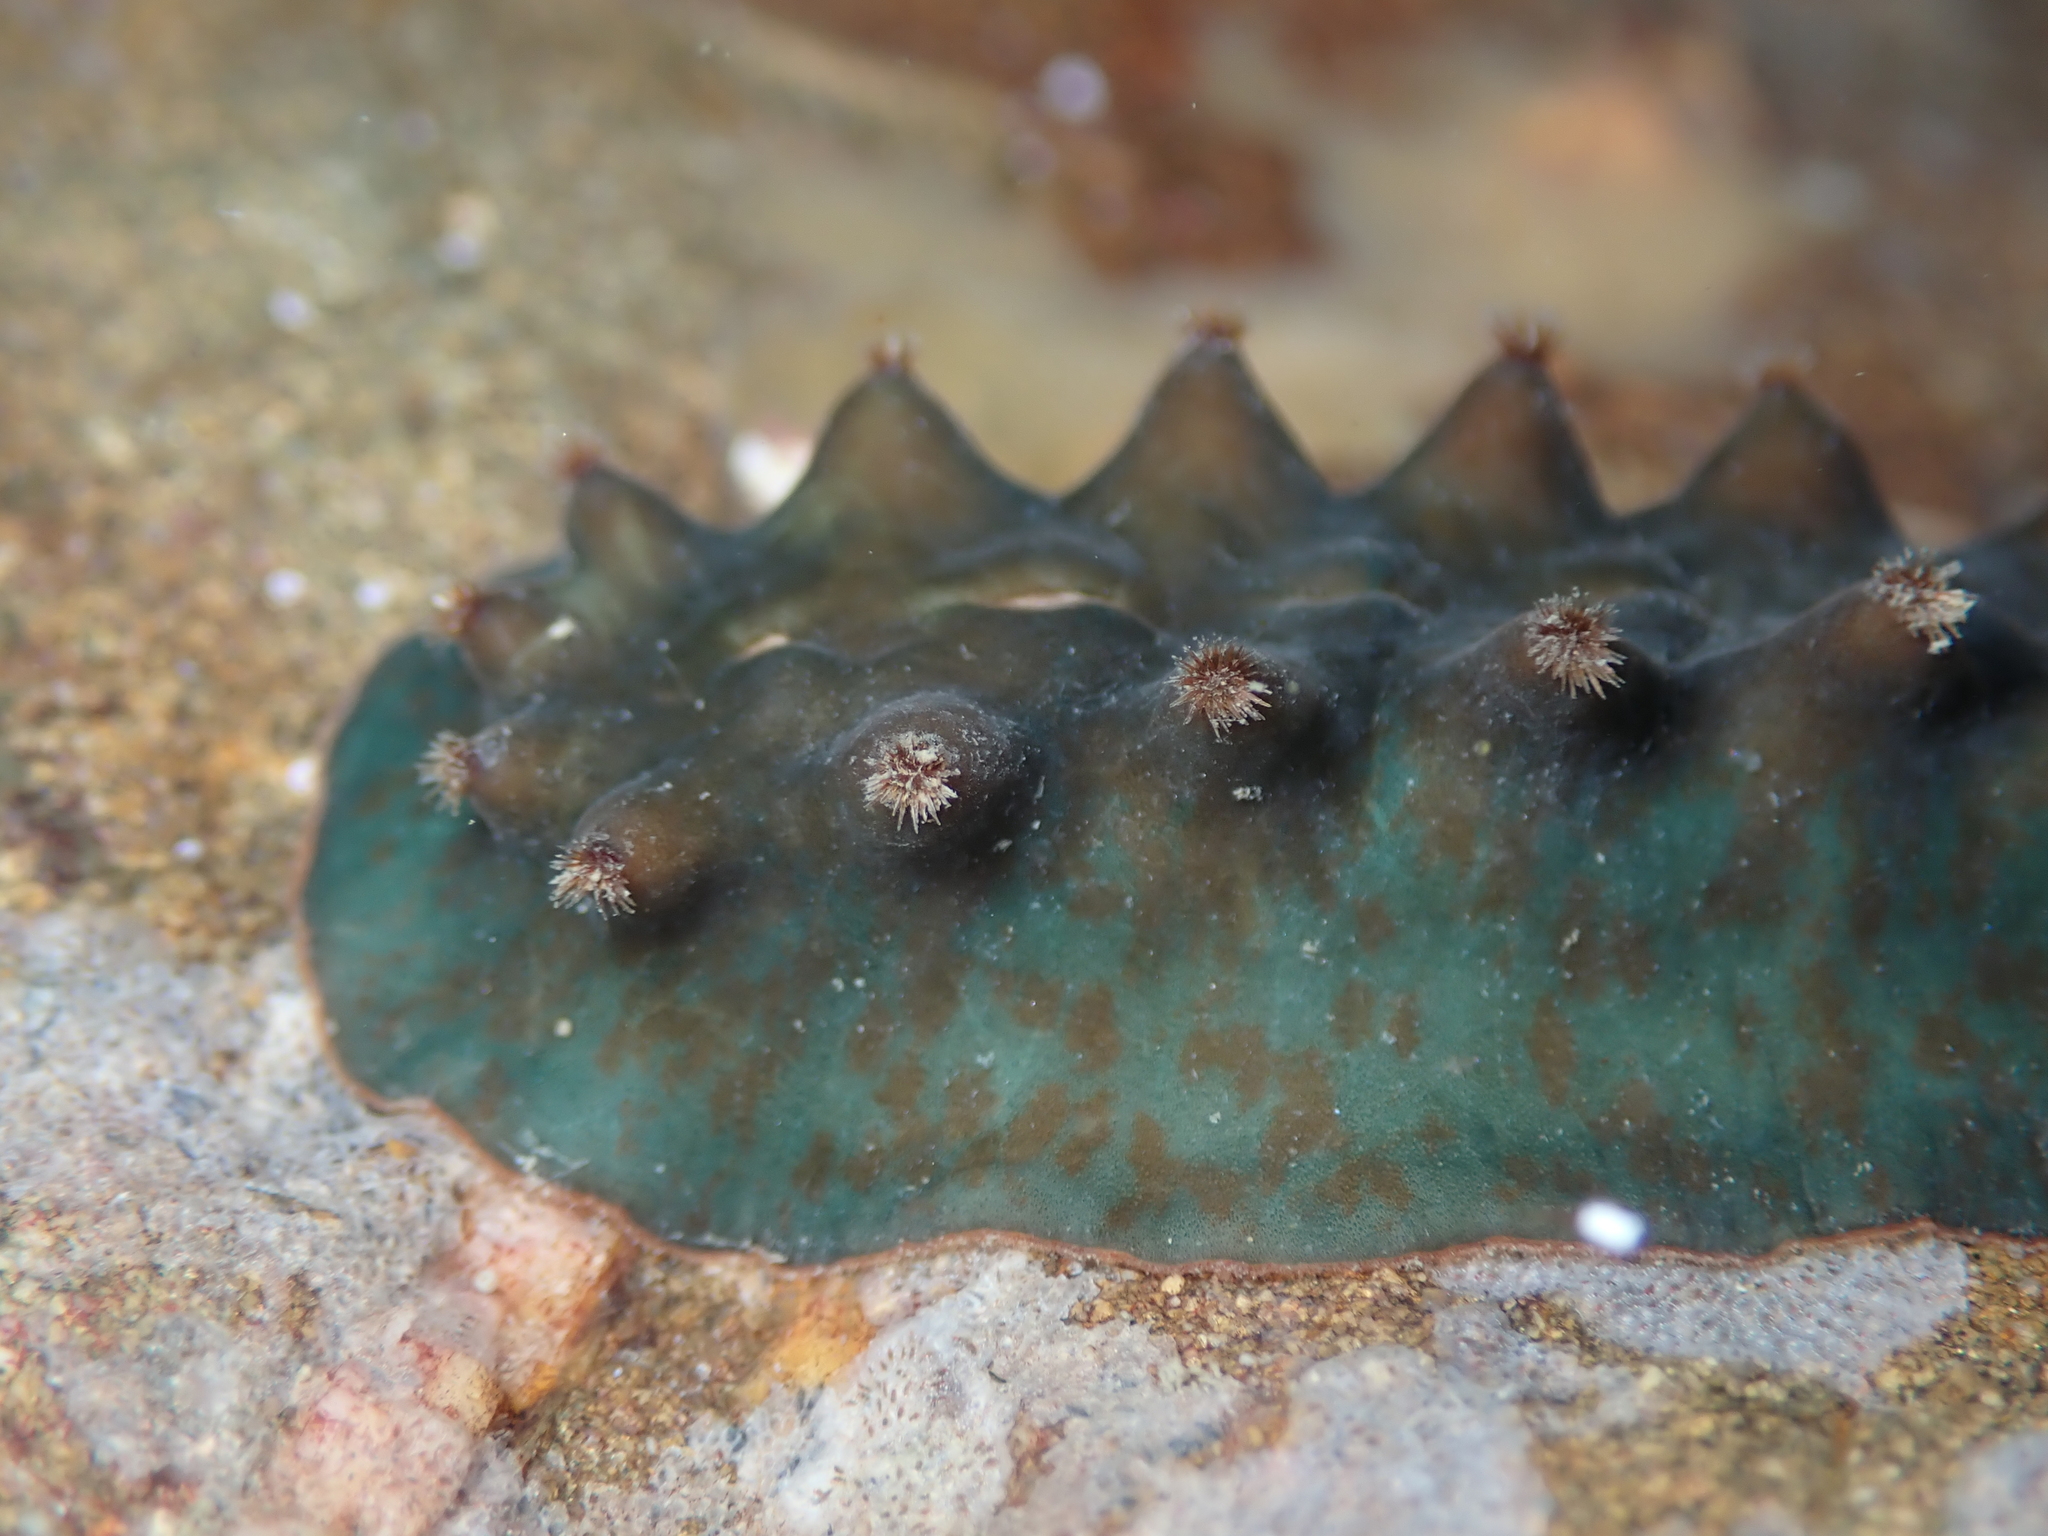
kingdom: Animalia
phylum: Mollusca
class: Polyplacophora
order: Chitonida
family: Acanthochitonidae
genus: Cryptoconchus
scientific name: Cryptoconchus porosus
